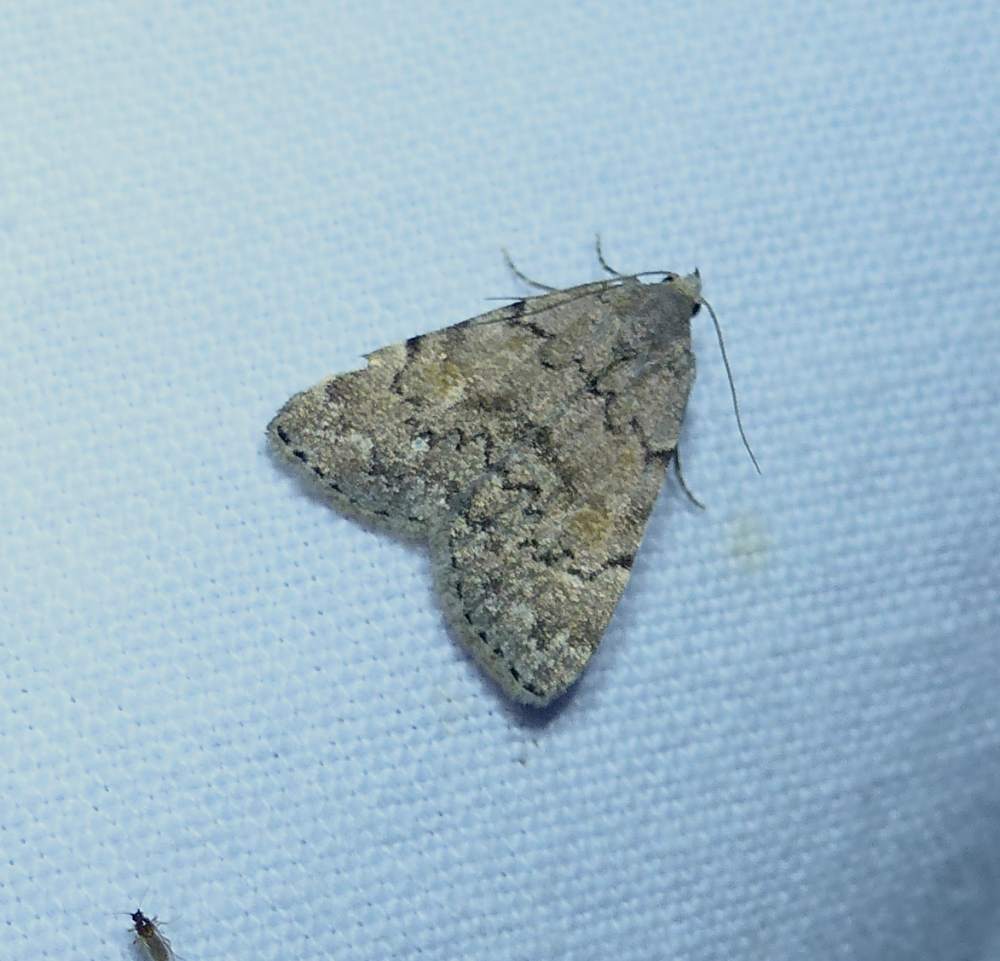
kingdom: Animalia
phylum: Arthropoda
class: Insecta
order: Lepidoptera
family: Erebidae
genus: Idia
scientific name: Idia aemula
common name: Common idia moth
